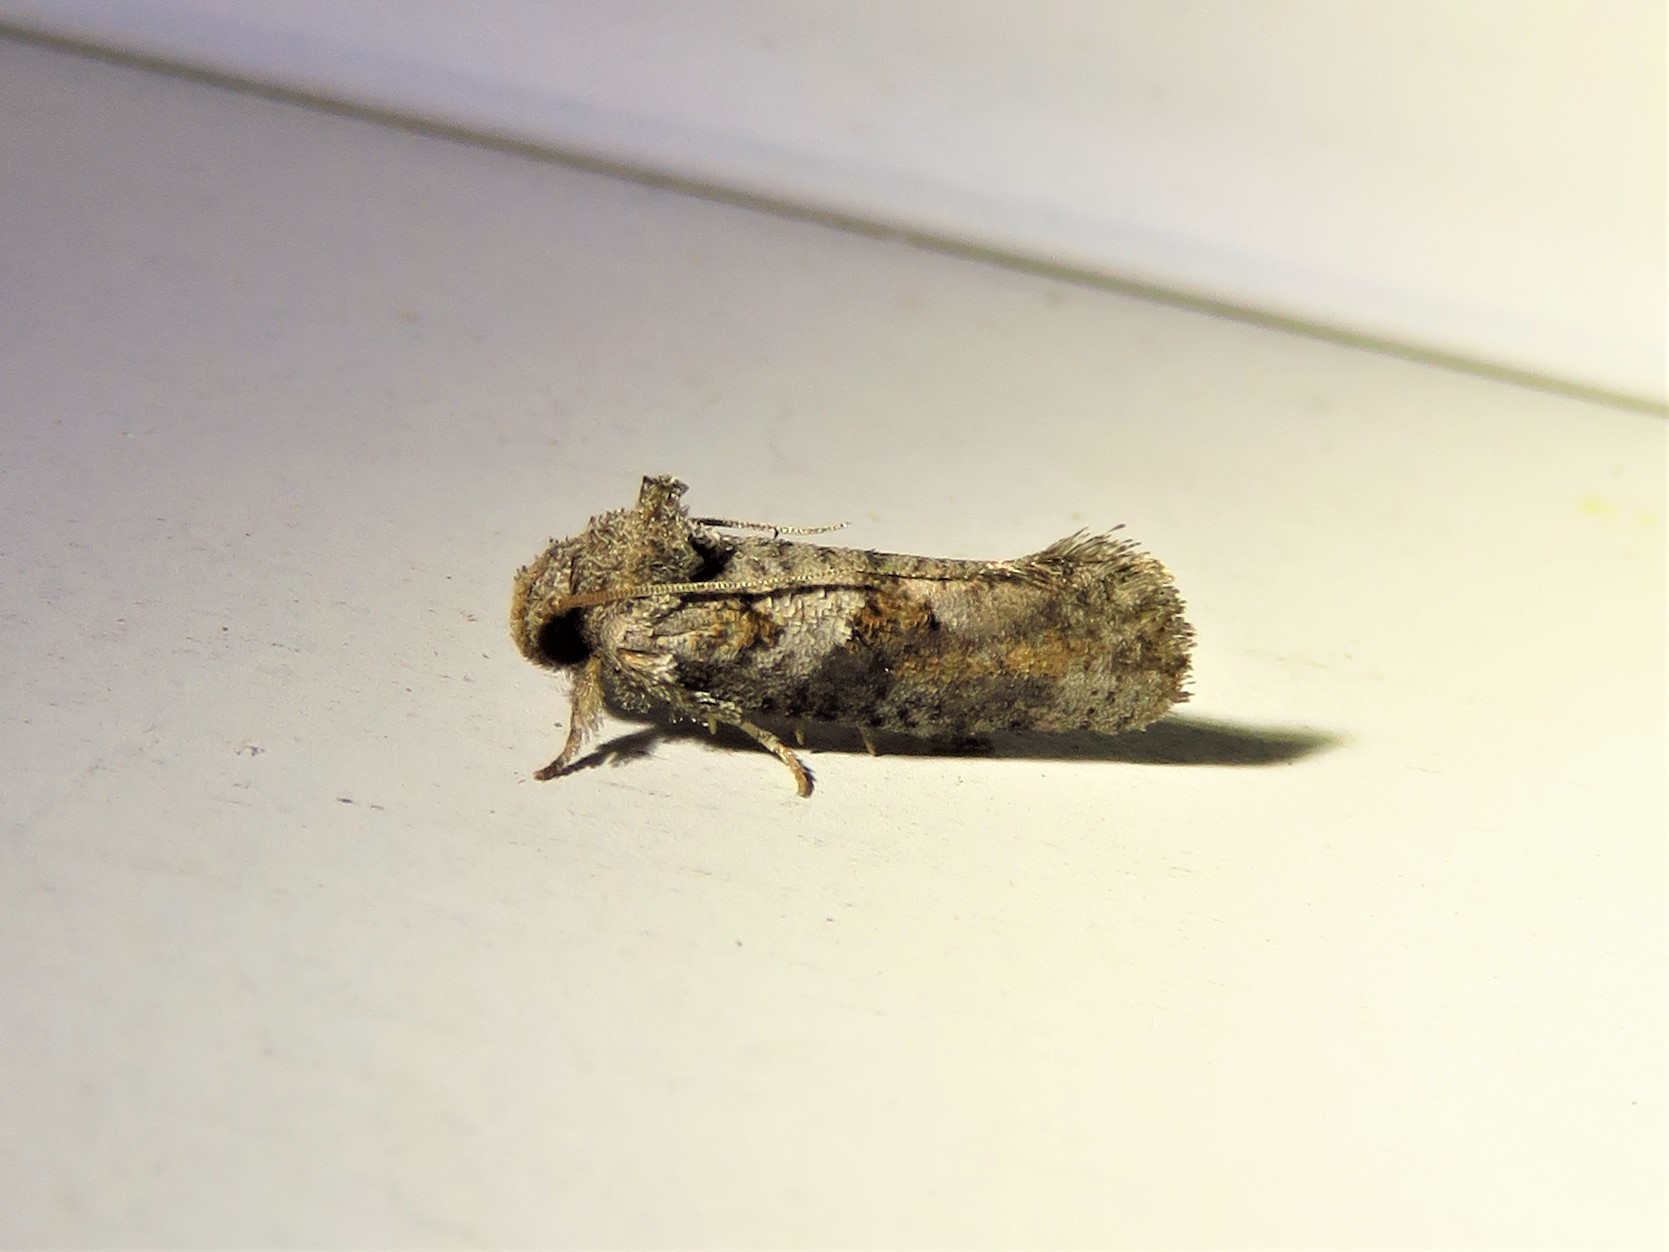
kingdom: Animalia
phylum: Arthropoda
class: Insecta
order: Lepidoptera
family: Tineidae
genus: Acrolophus
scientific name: Acrolophus piger
